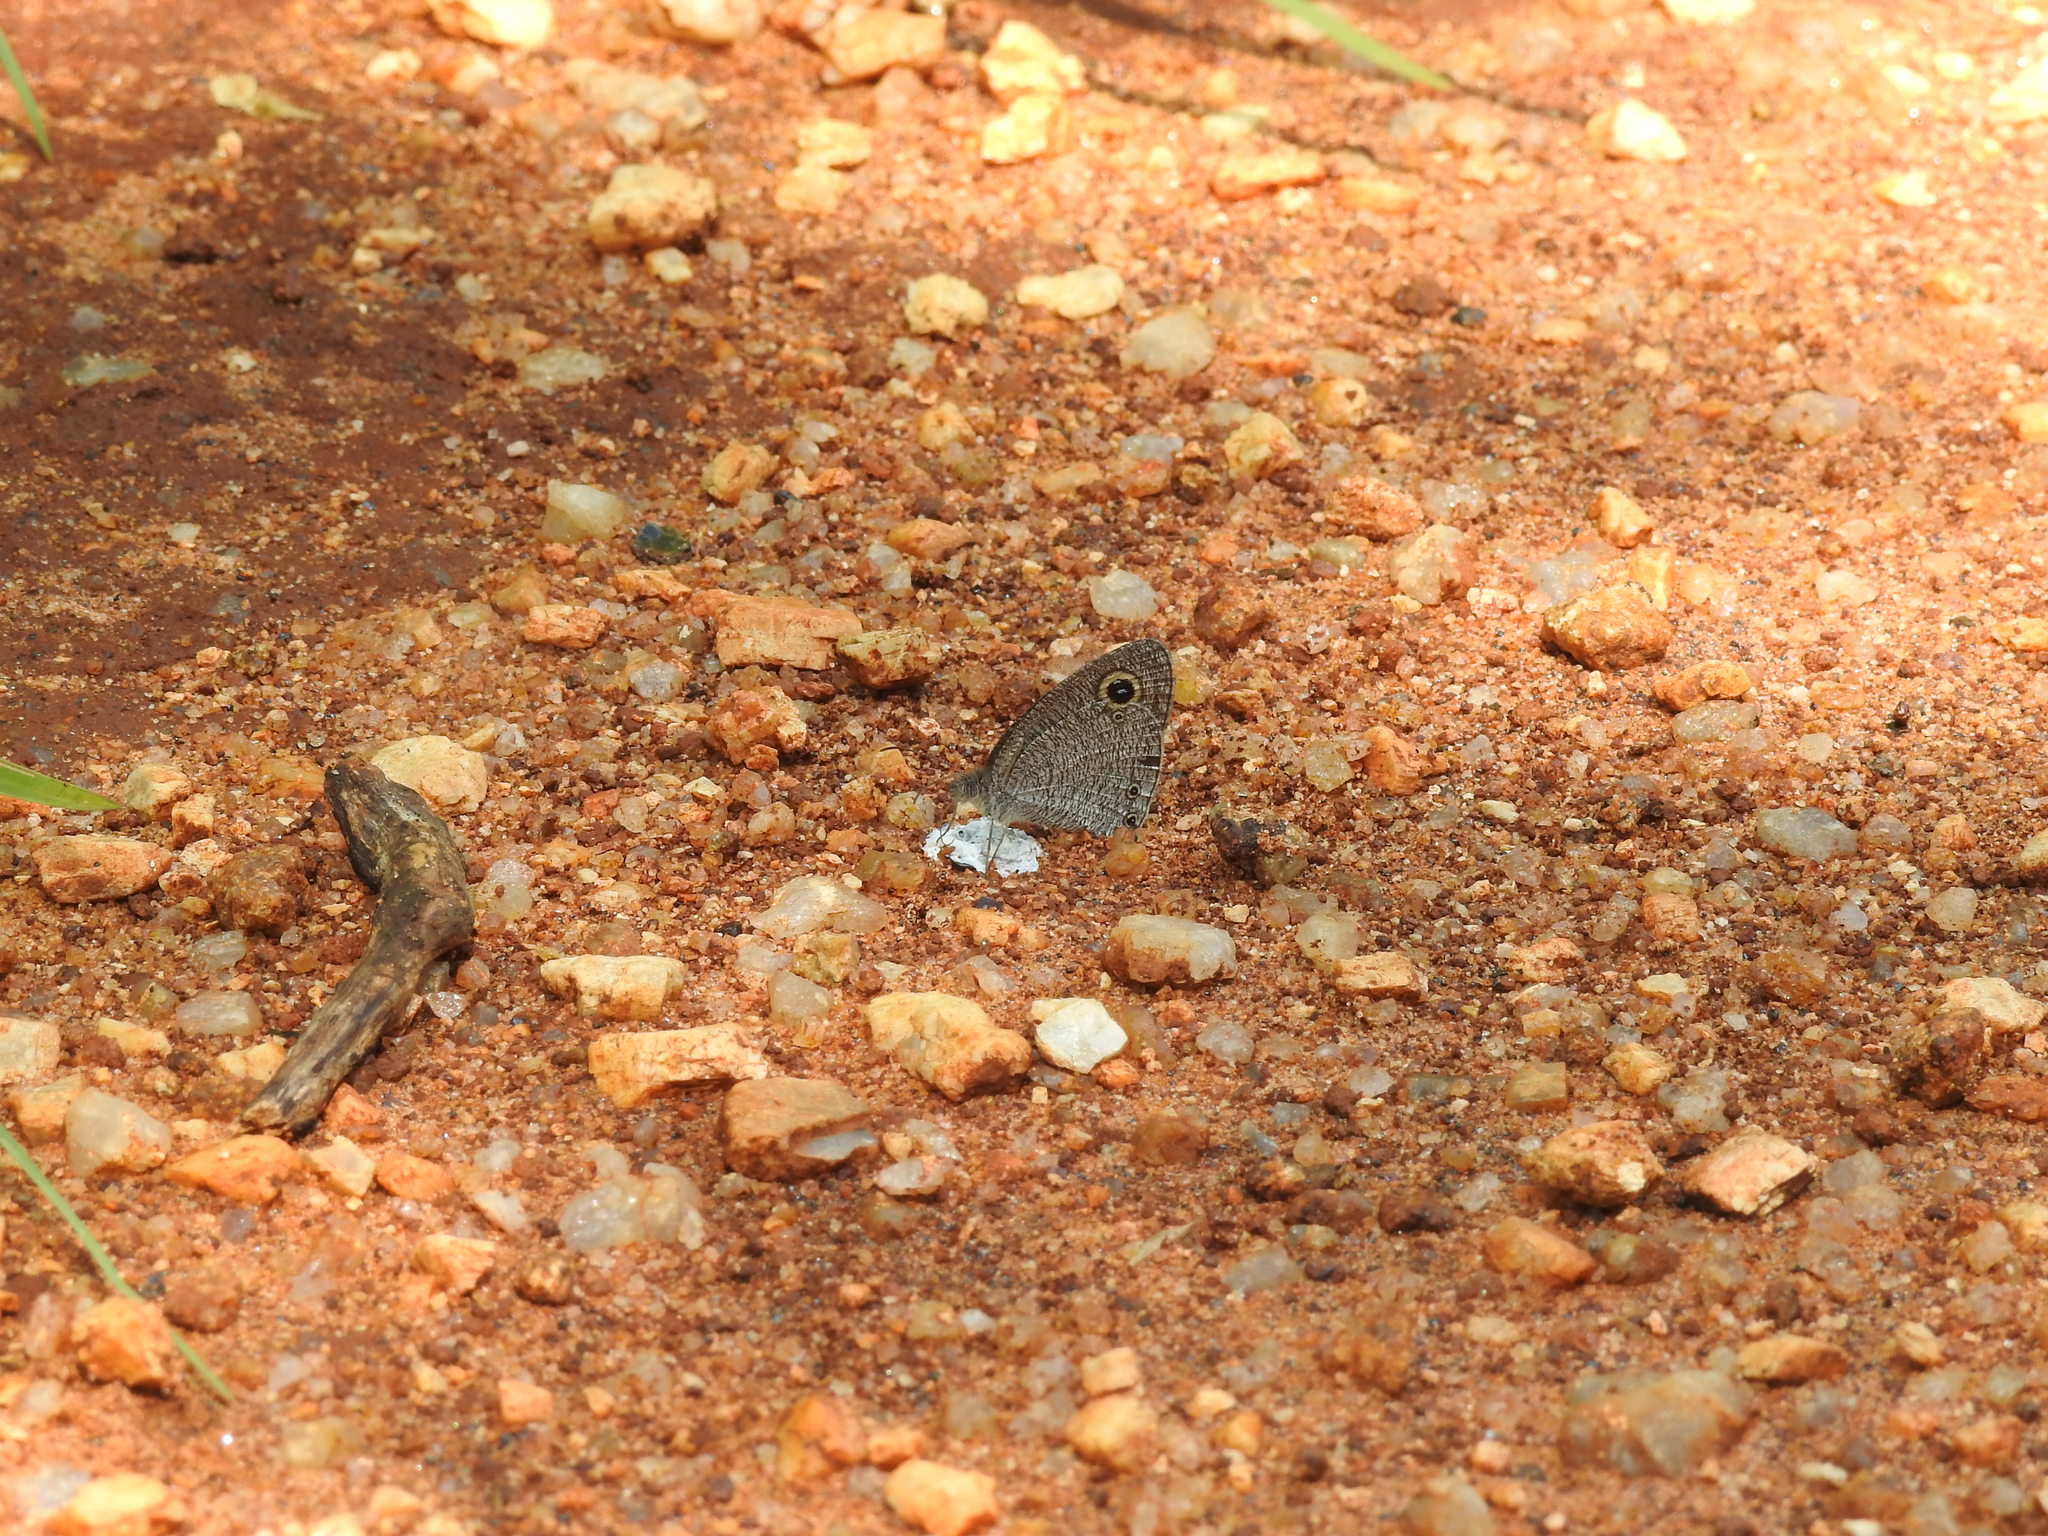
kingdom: Animalia
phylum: Arthropoda
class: Insecta
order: Lepidoptera
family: Nymphalidae
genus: Ypthima
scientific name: Ypthima asterope
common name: African ringlet
